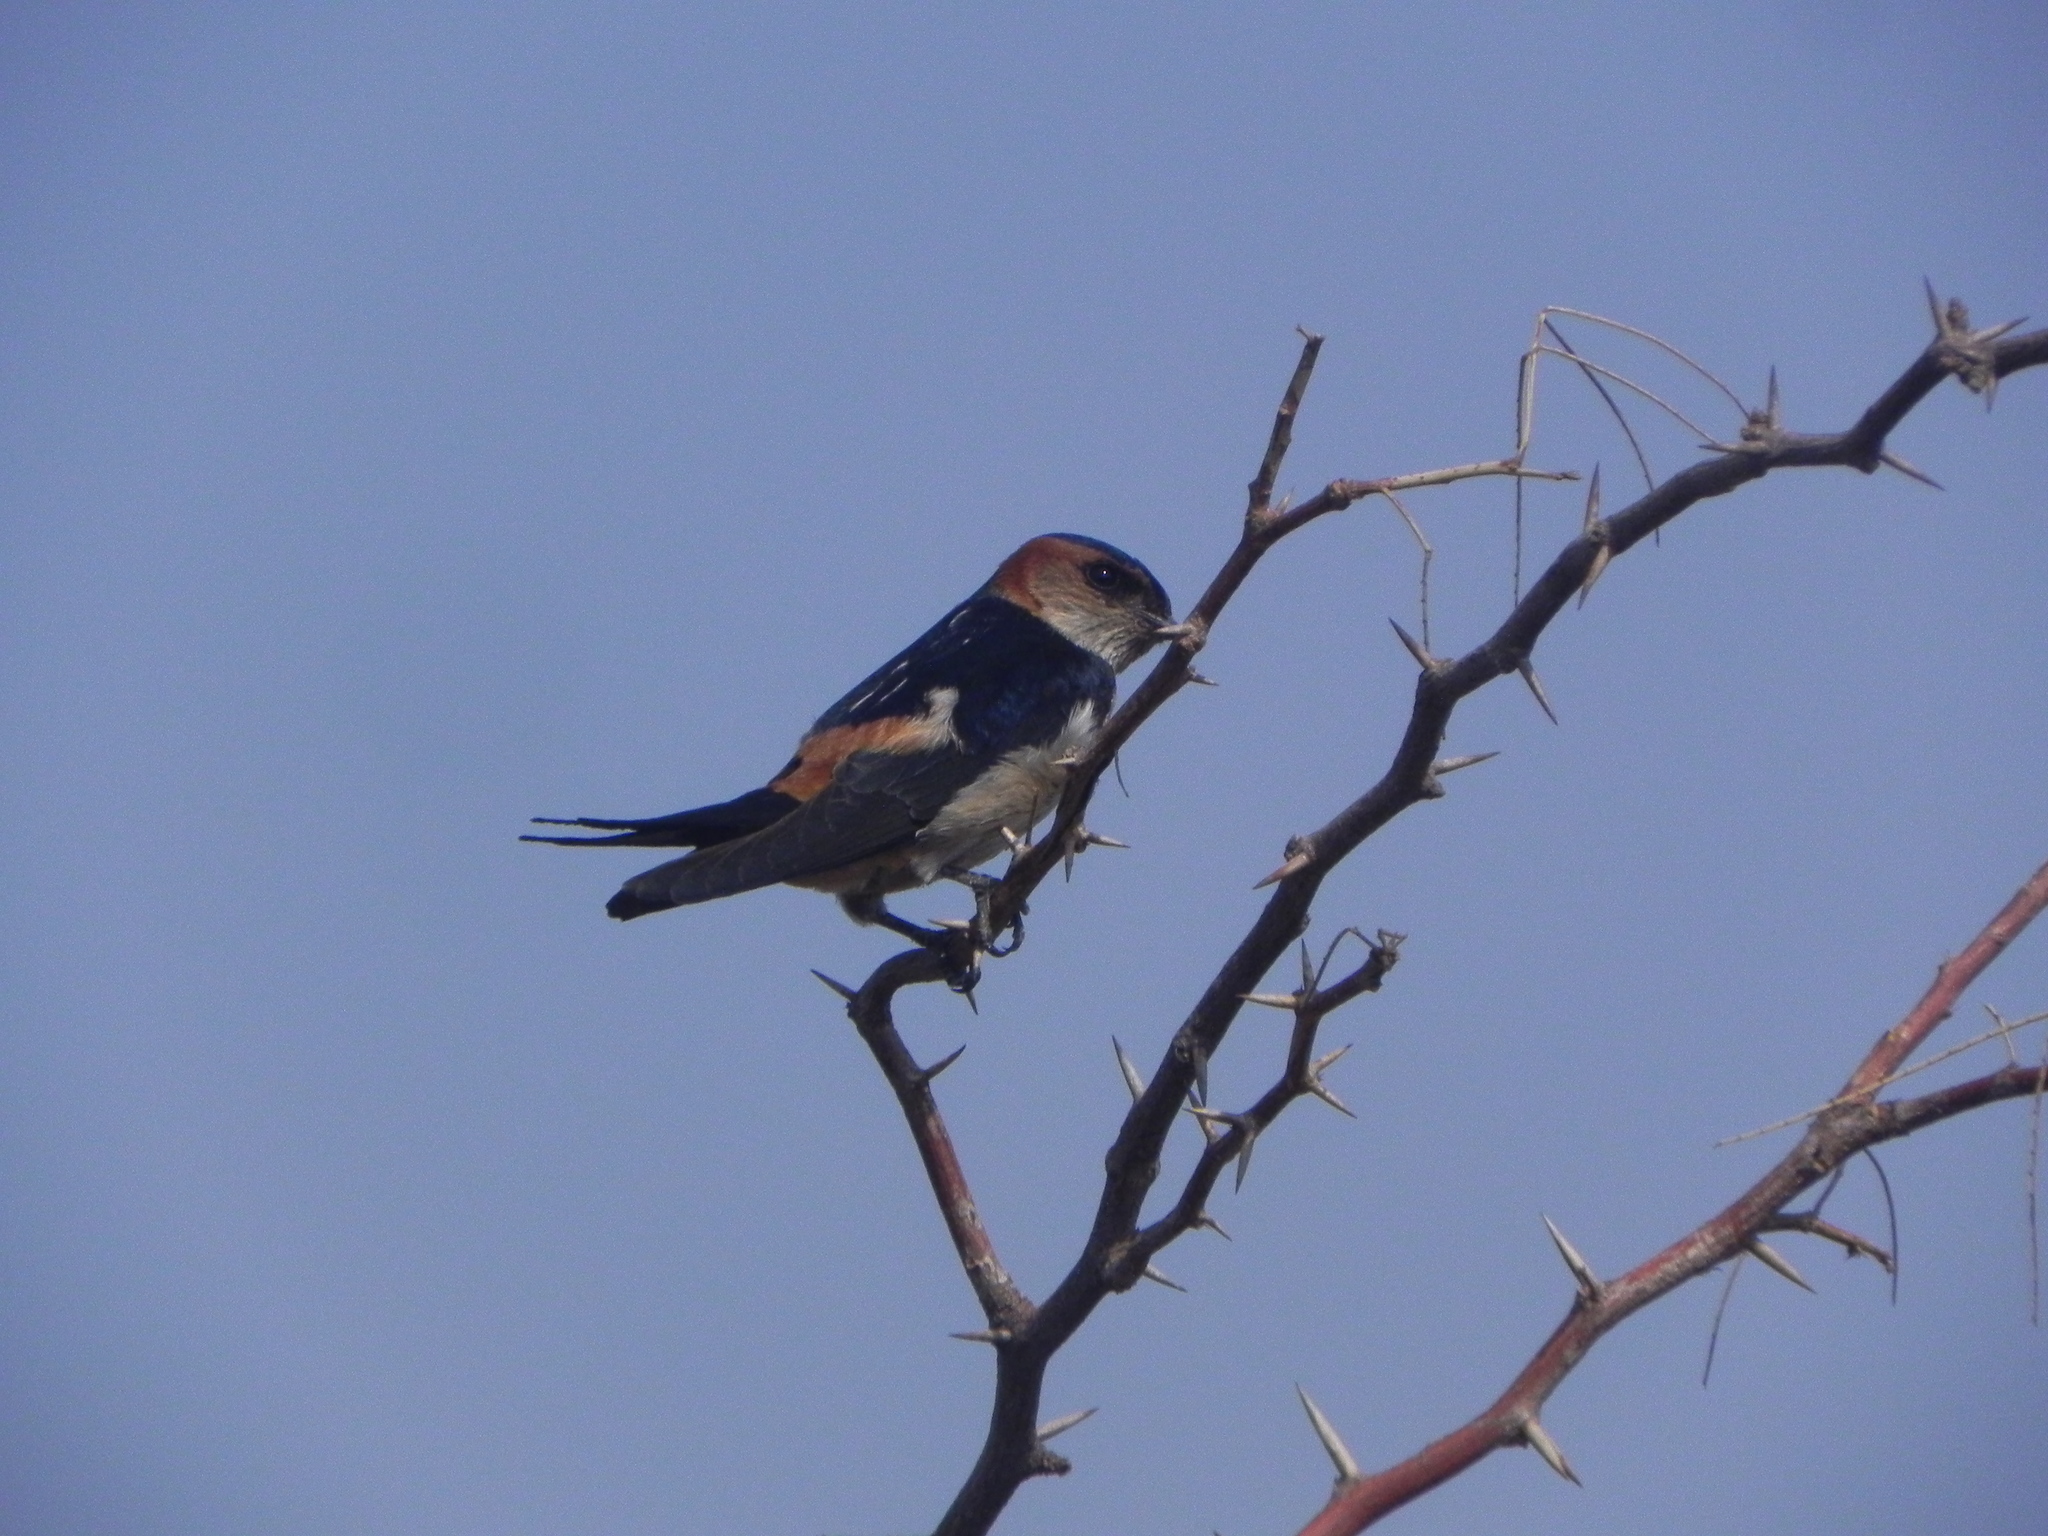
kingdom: Animalia
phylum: Chordata
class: Aves
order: Passeriformes
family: Hirundinidae
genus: Cecropis
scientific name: Cecropis daurica
